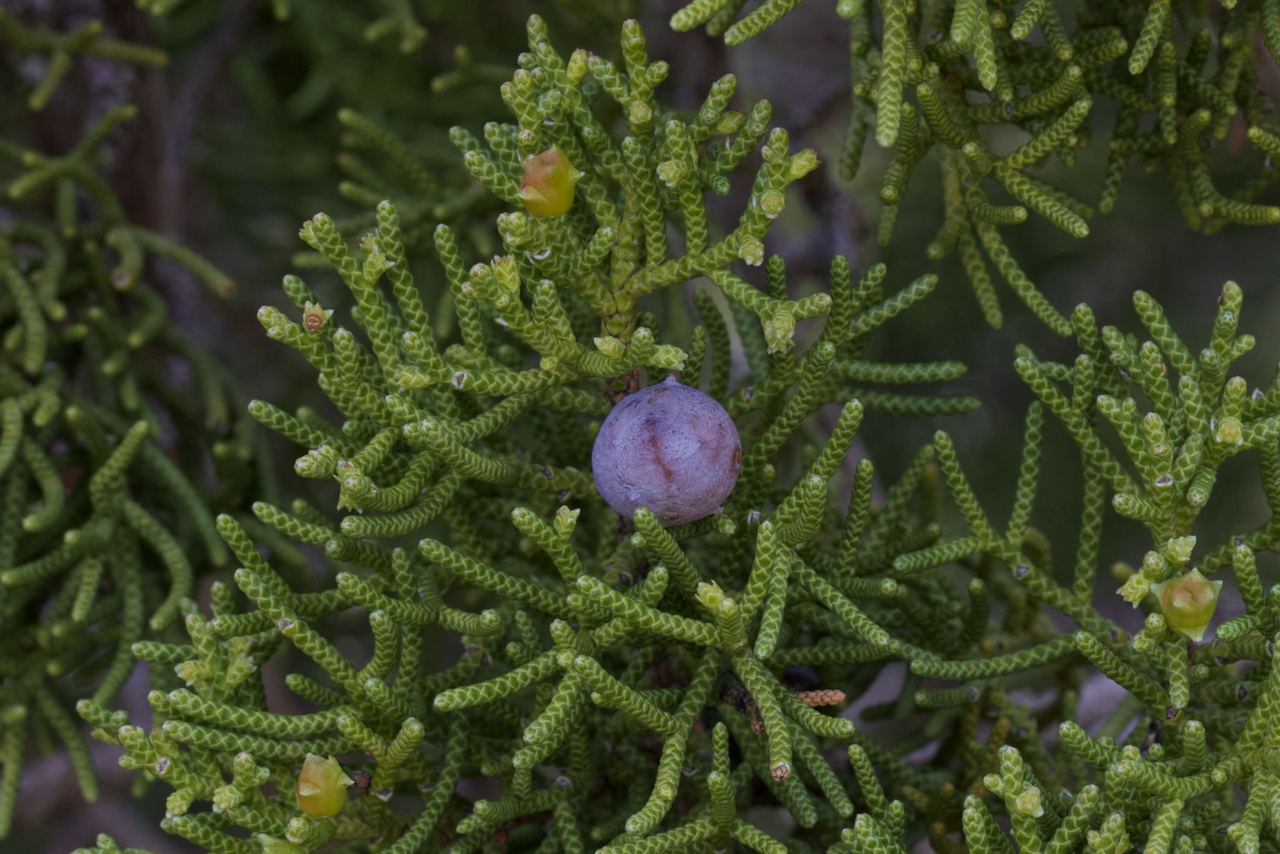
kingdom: Plantae
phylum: Tracheophyta
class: Pinopsida
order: Pinales
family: Cupressaceae
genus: Juniperus
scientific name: Juniperus californica
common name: California juniper
